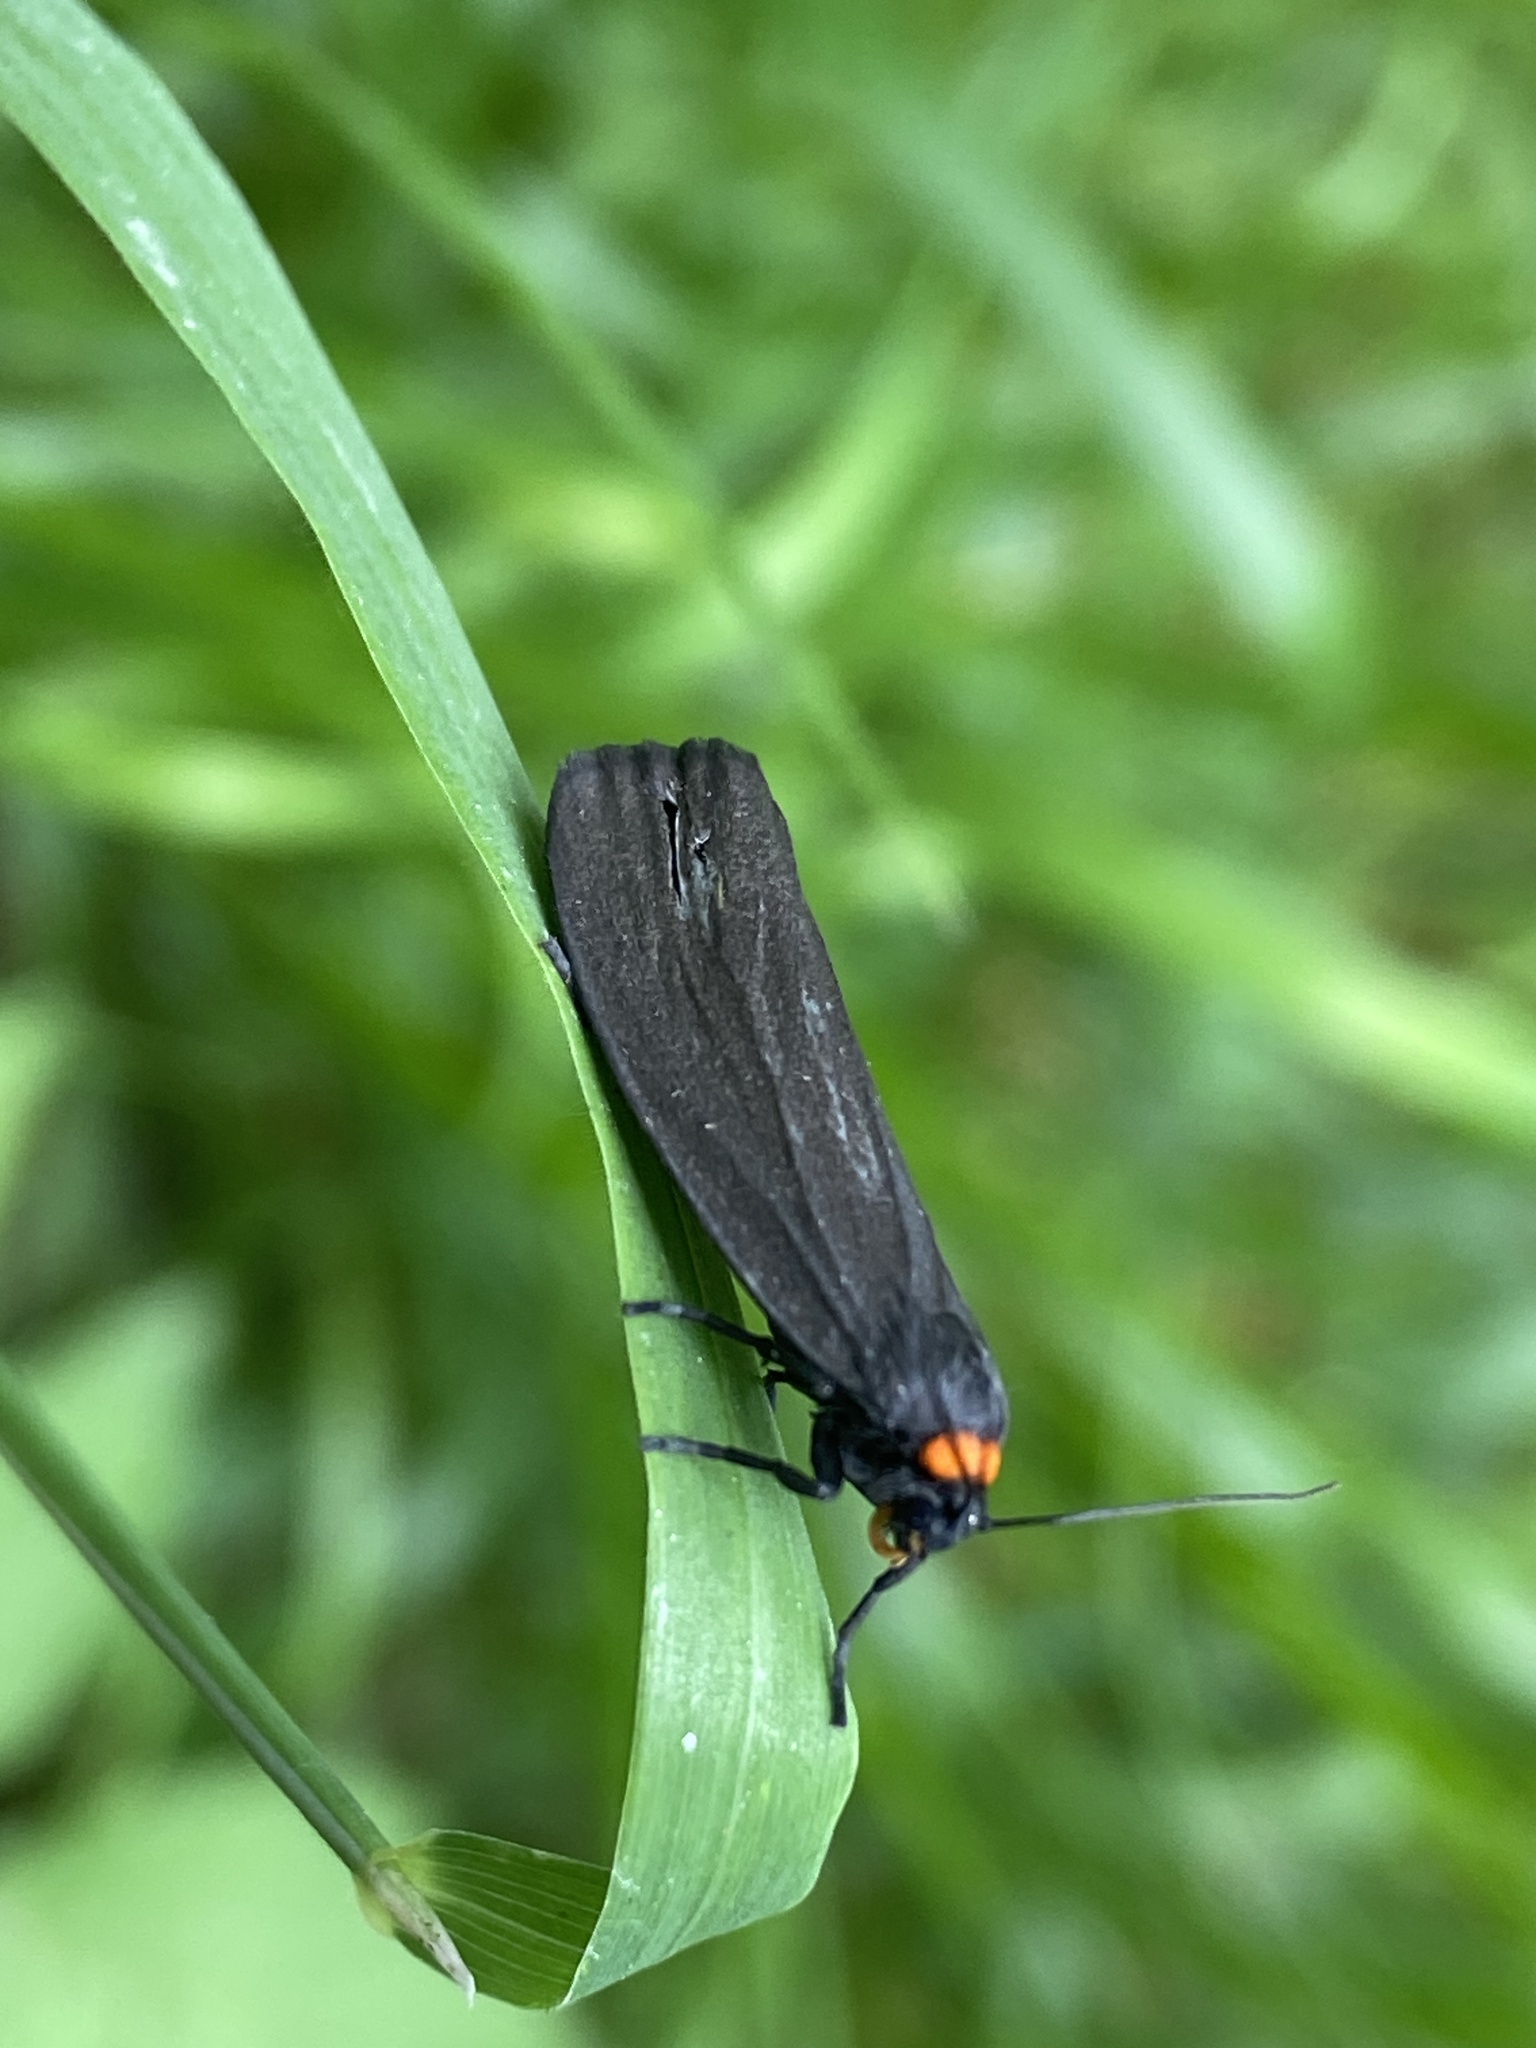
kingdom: Animalia
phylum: Arthropoda
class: Insecta
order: Lepidoptera
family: Erebidae
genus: Atolmis
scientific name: Atolmis rubricollis
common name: Red-necked footman
